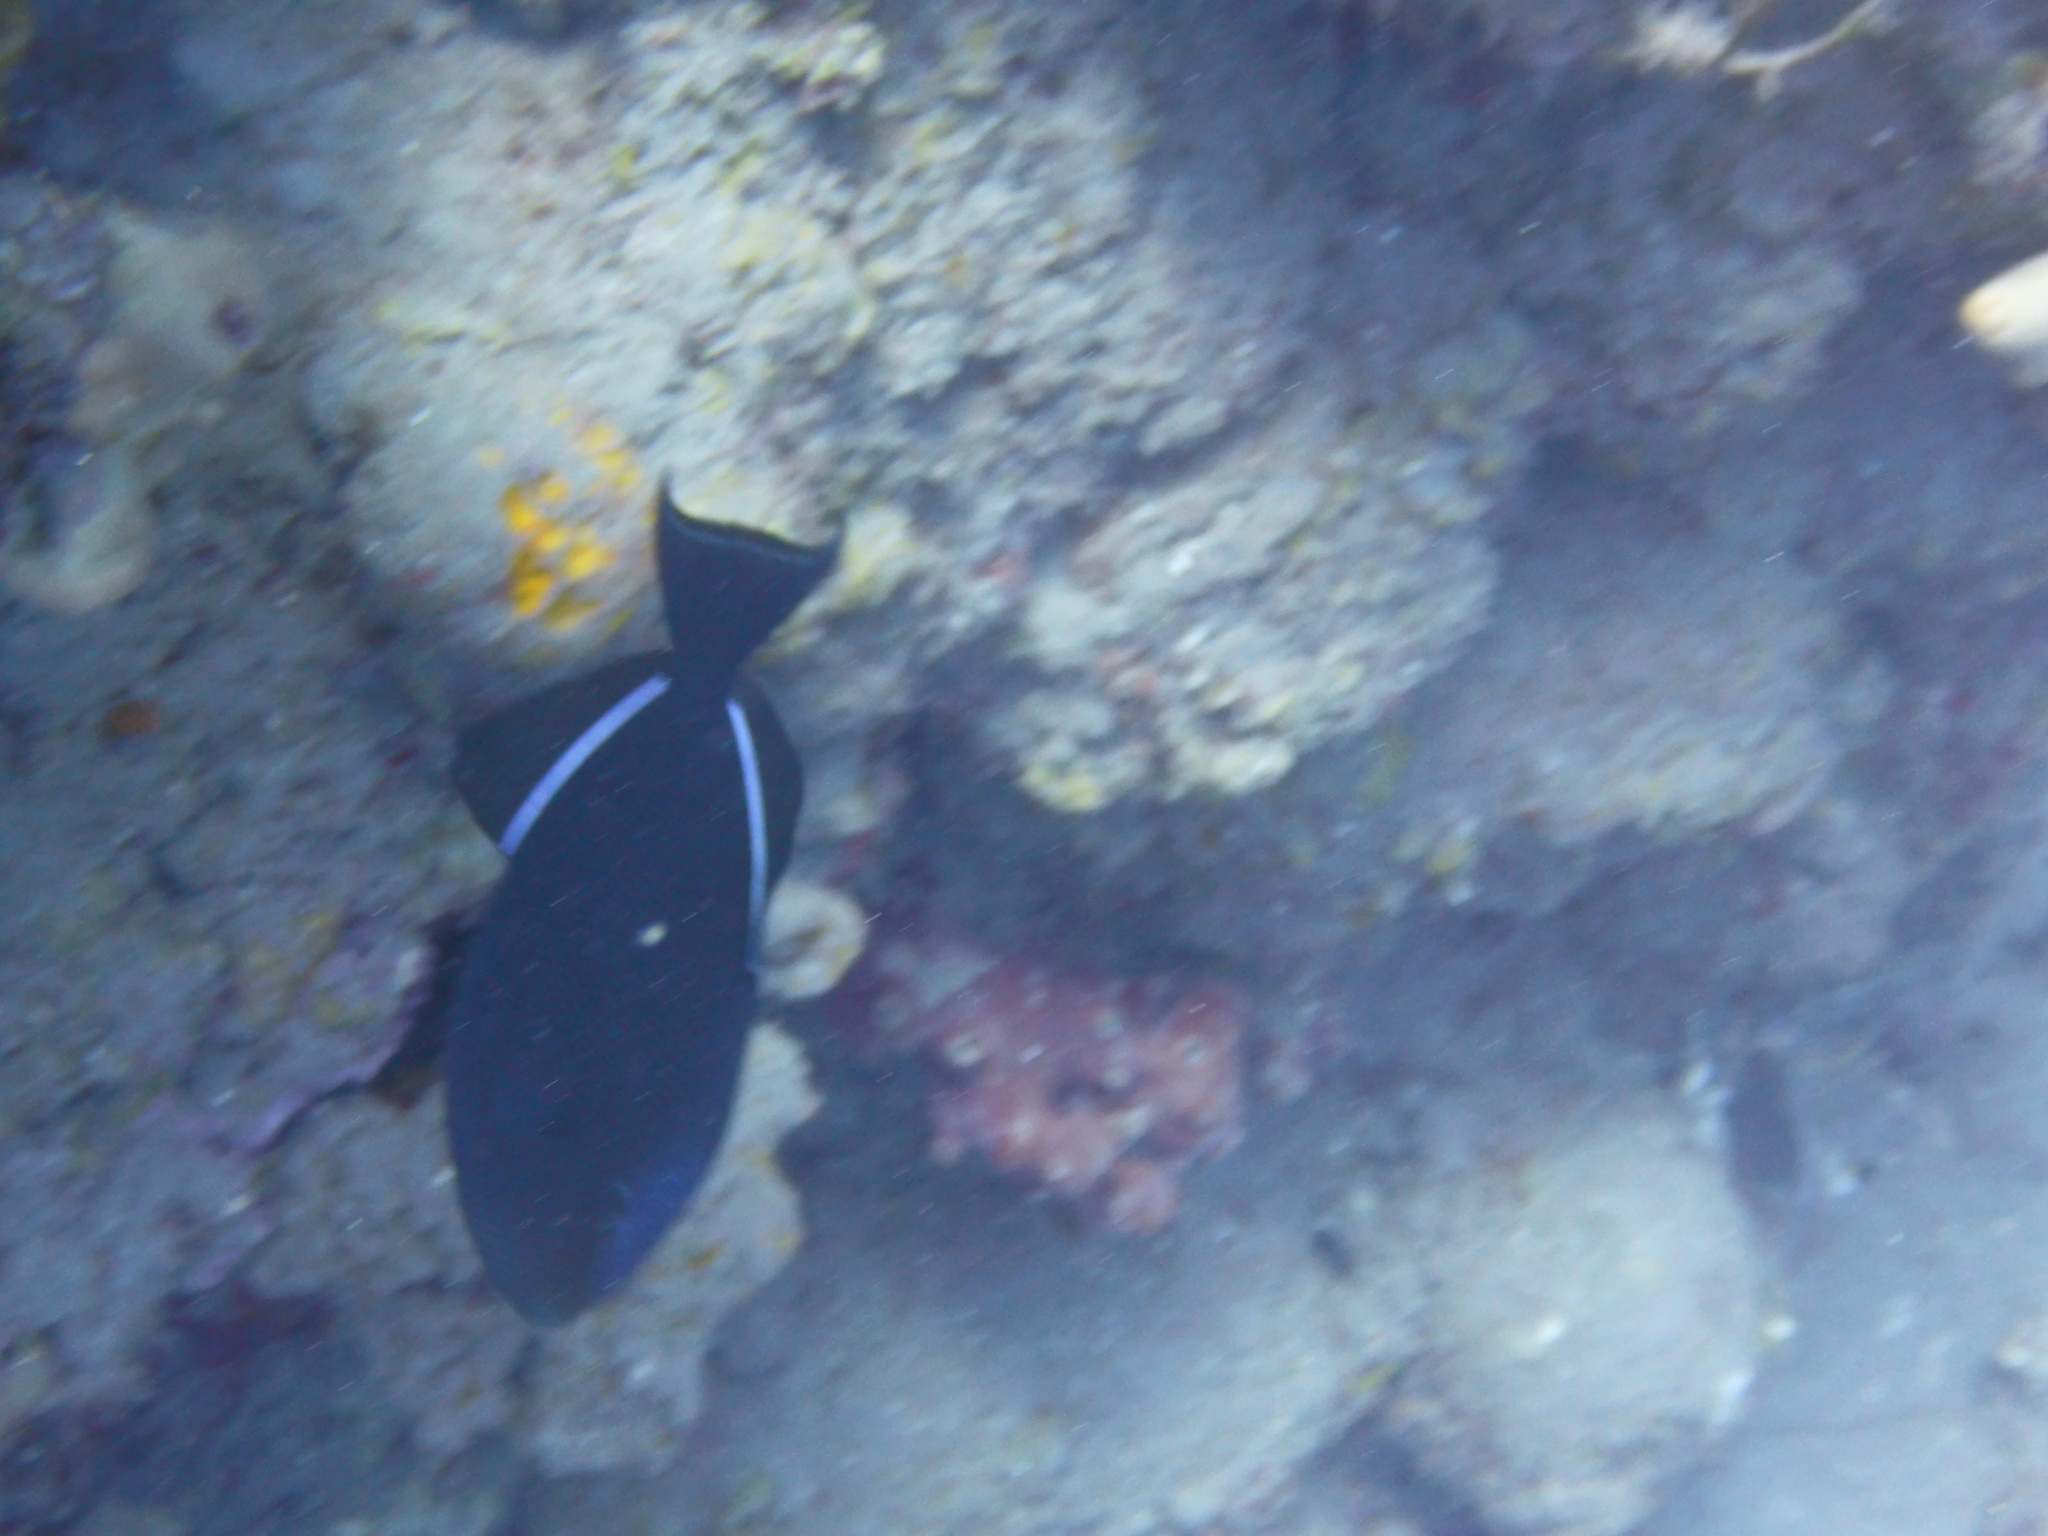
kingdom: Animalia
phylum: Chordata
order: Tetraodontiformes
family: Balistidae
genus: Melichthys
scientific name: Melichthys niger
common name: Black durgon
